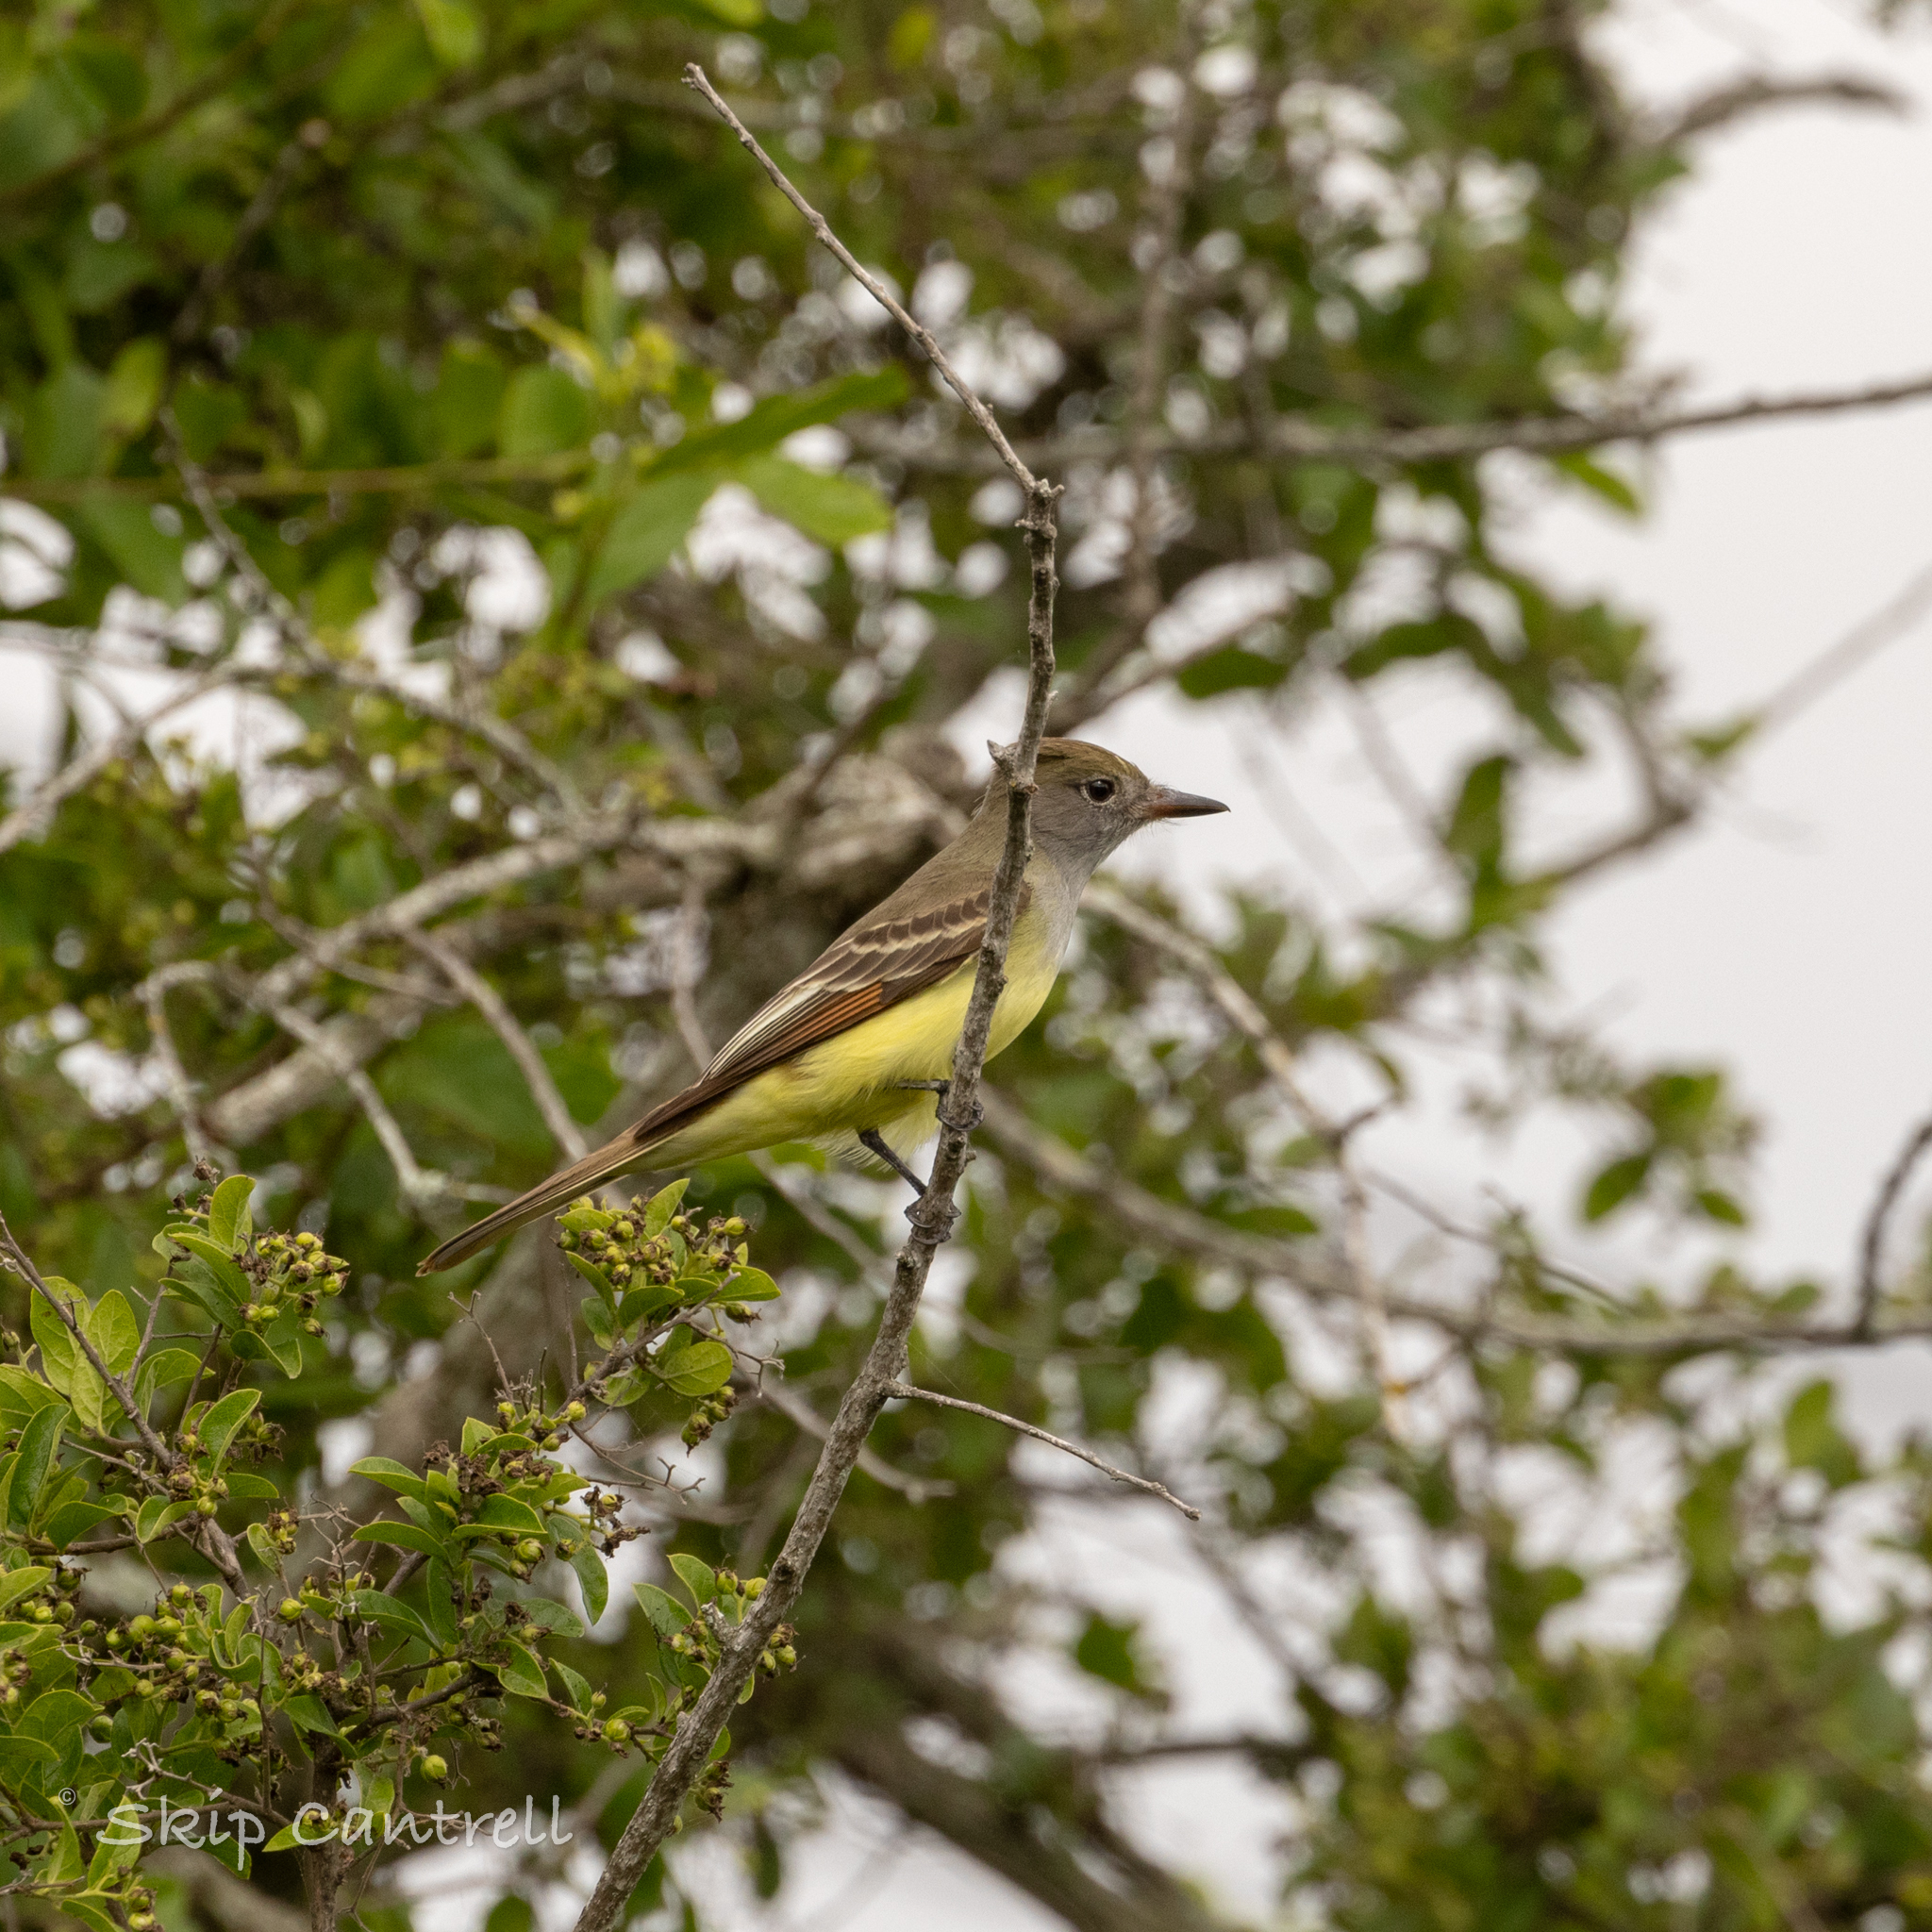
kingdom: Animalia
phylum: Chordata
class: Aves
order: Passeriformes
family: Tyrannidae
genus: Myiarchus
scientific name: Myiarchus crinitus
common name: Great crested flycatcher
